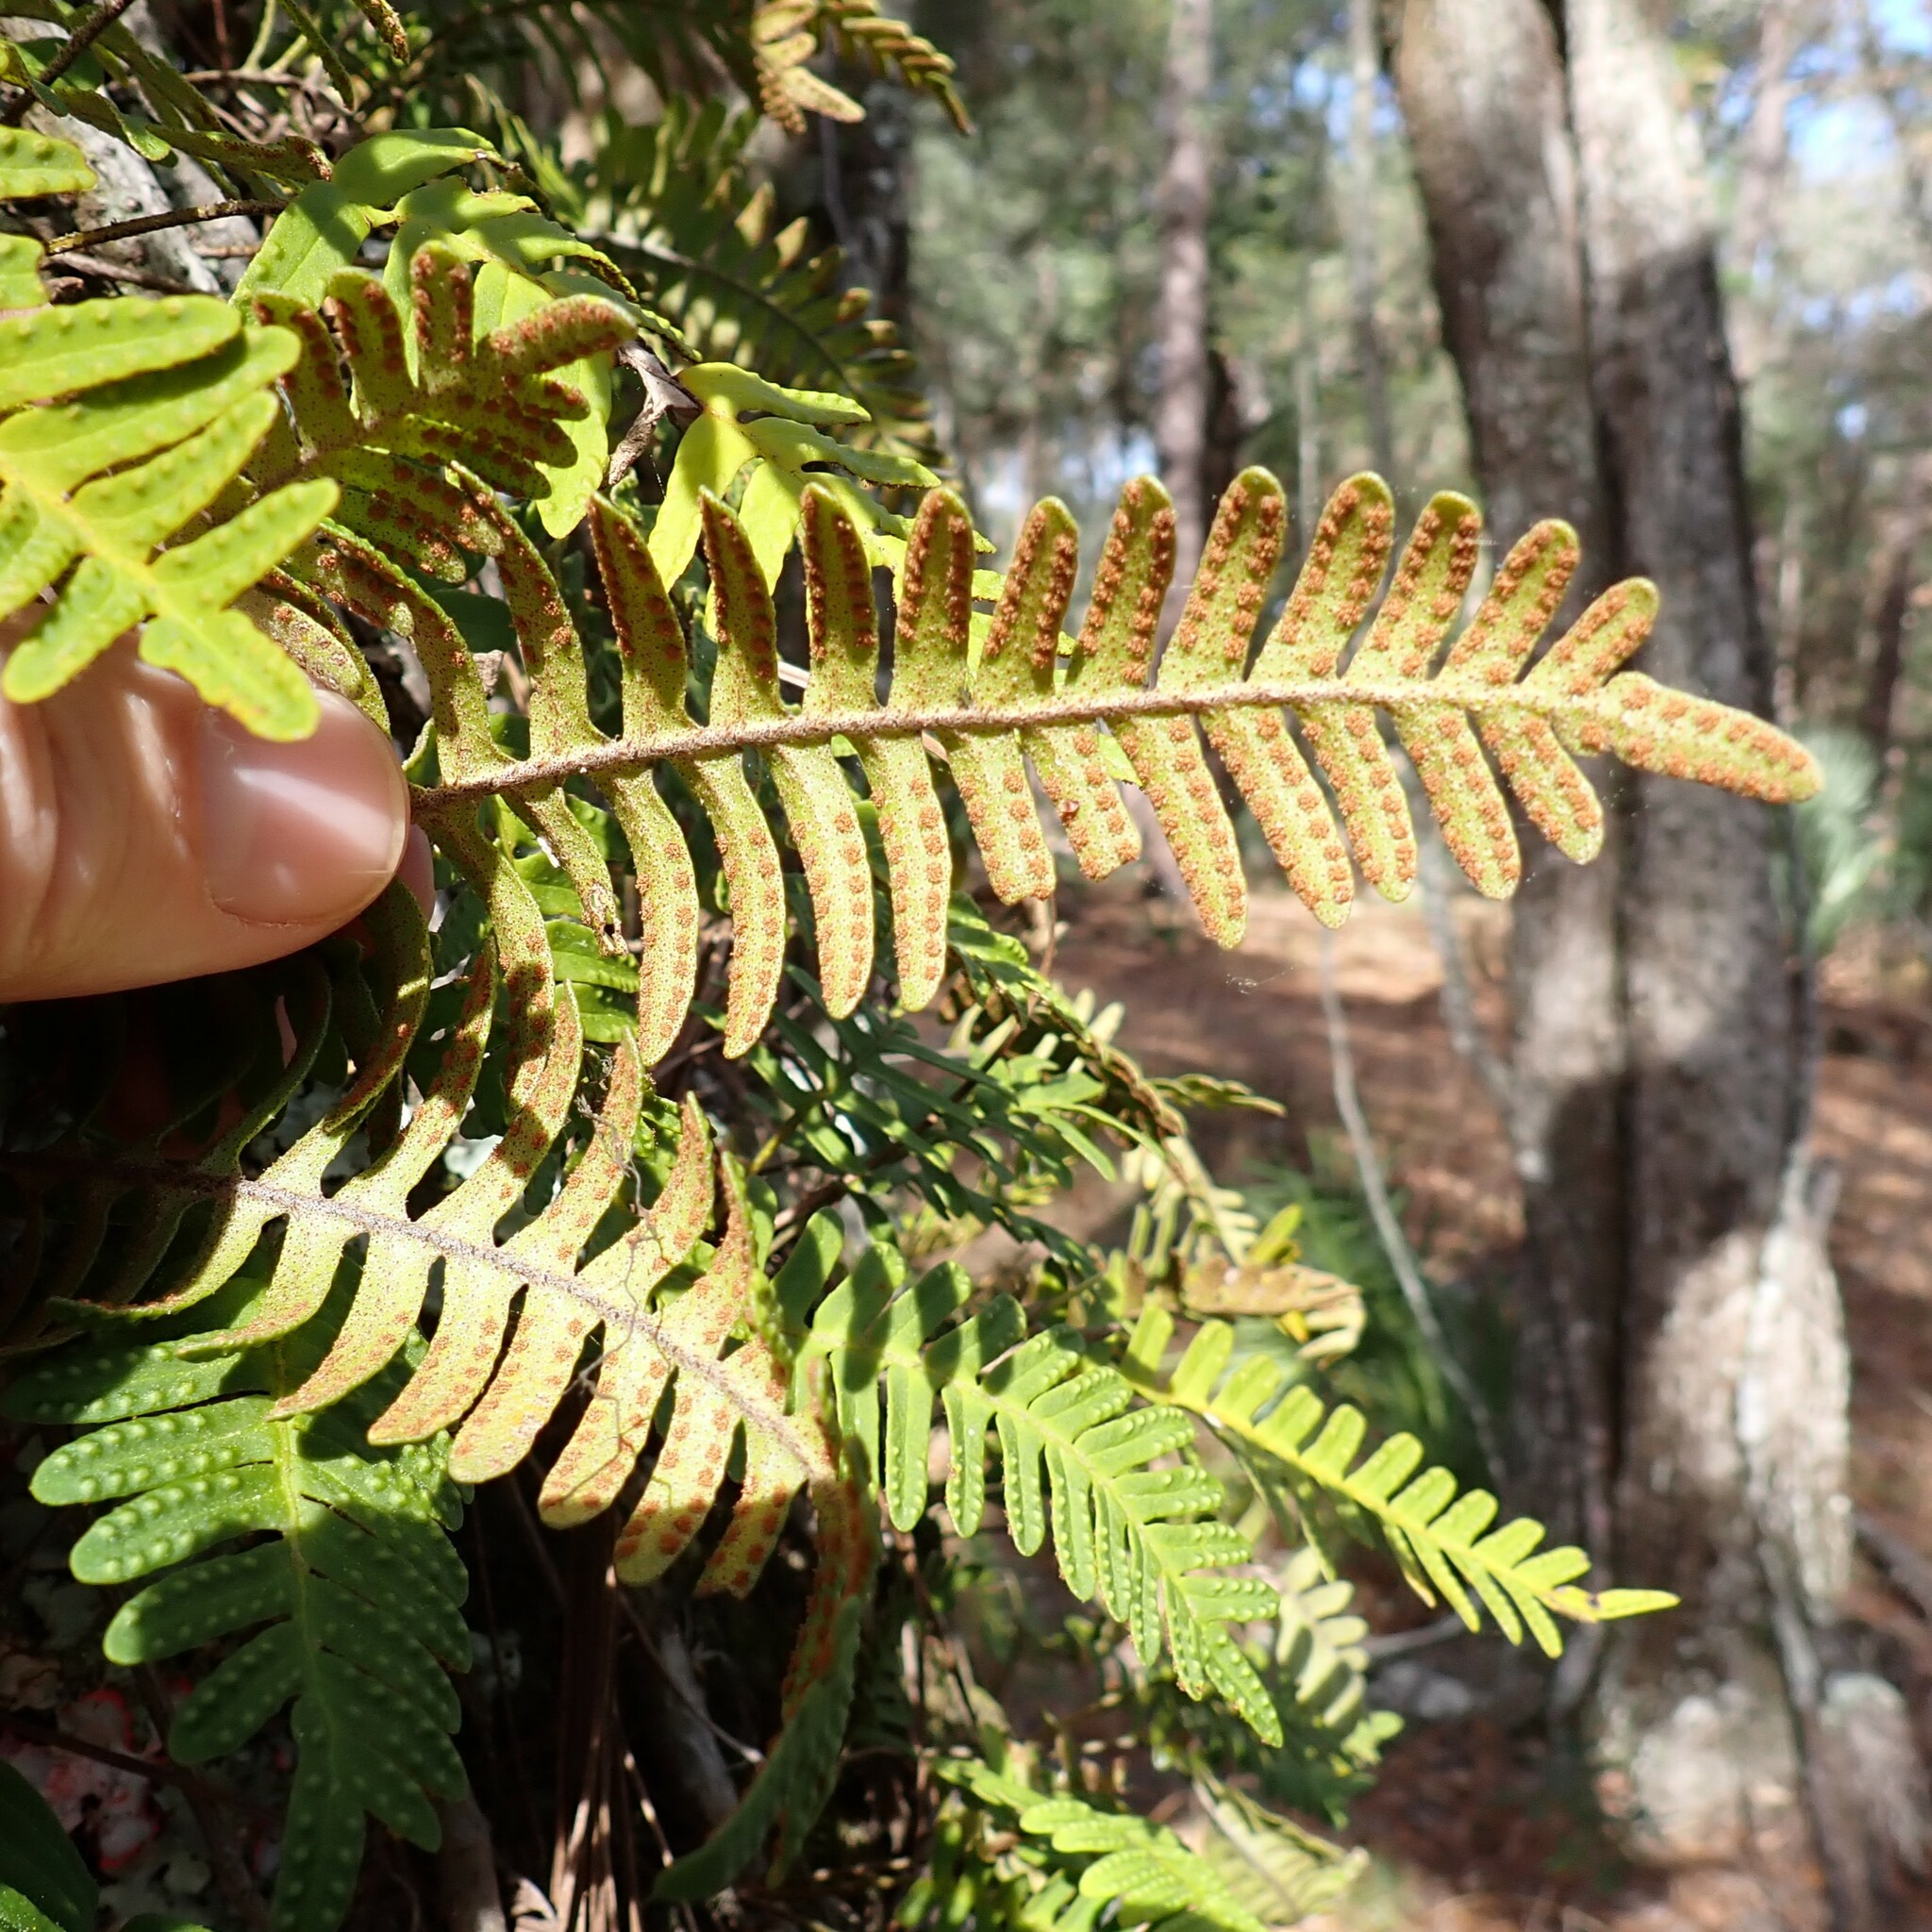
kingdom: Plantae
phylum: Tracheophyta
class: Polypodiopsida
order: Polypodiales
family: Polypodiaceae
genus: Pleopeltis
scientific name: Pleopeltis michauxiana
